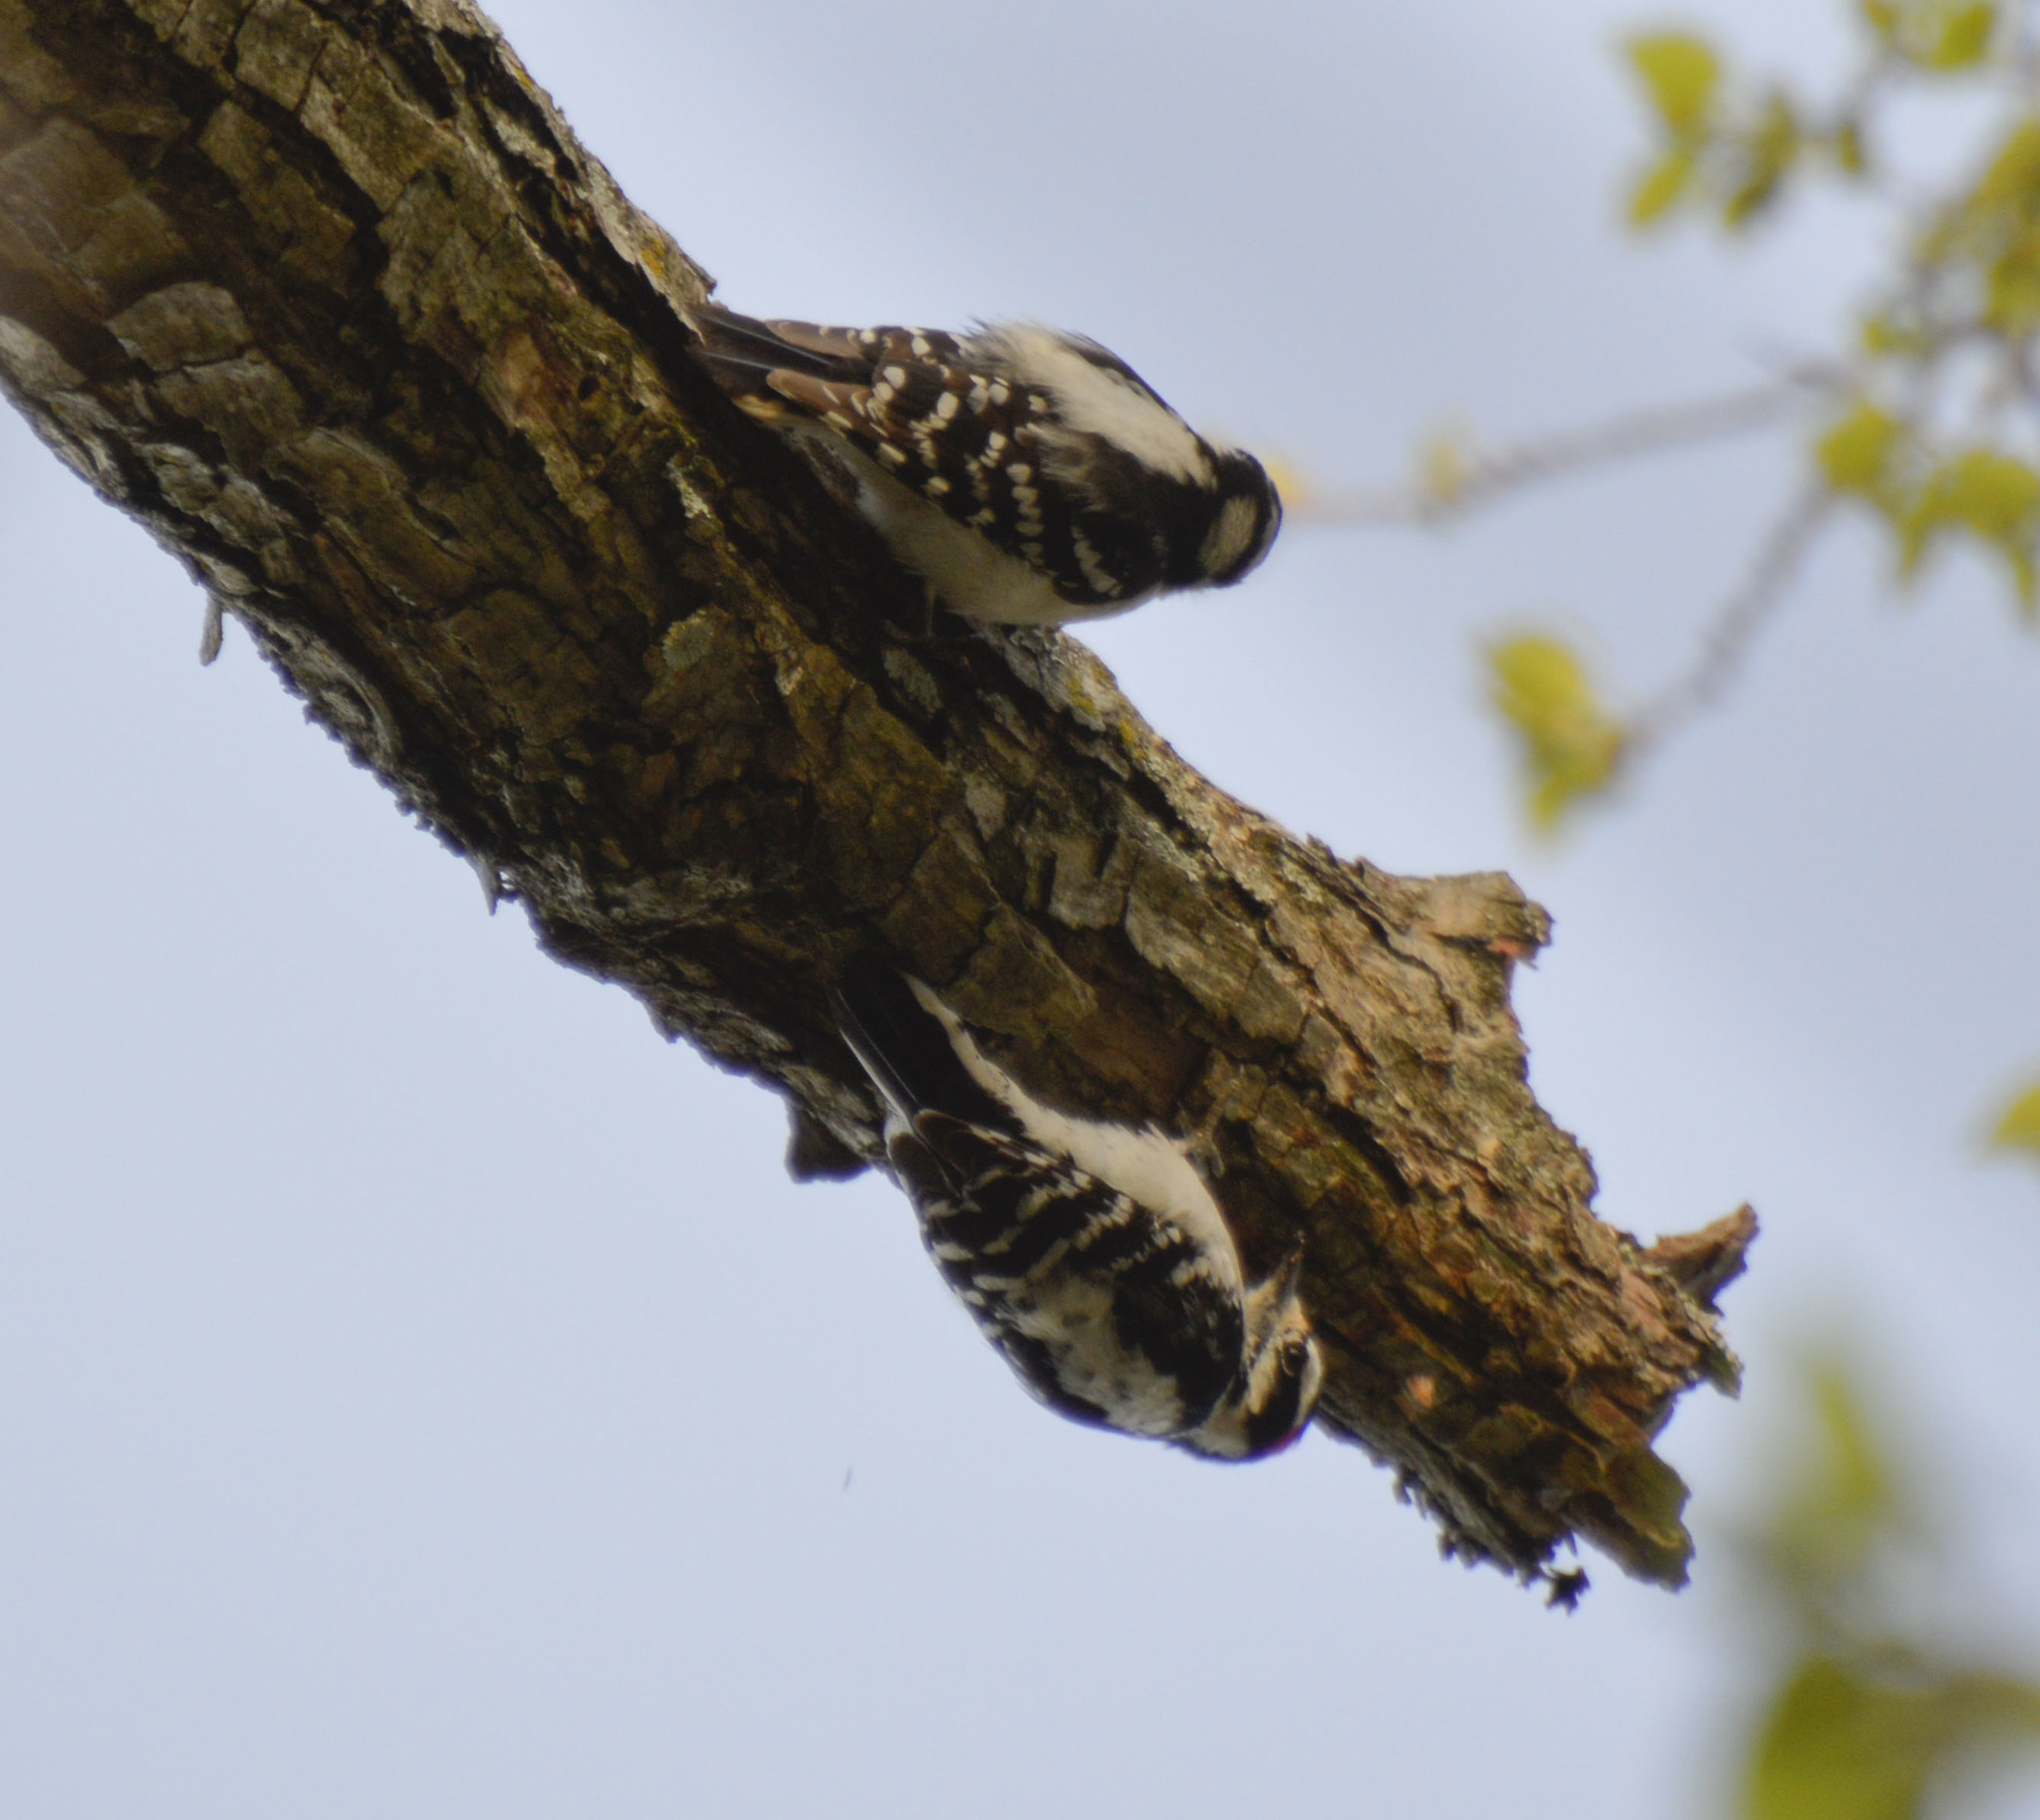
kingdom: Animalia
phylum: Chordata
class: Aves
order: Piciformes
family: Picidae
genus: Dryobates
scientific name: Dryobates pubescens
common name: Downy woodpecker
